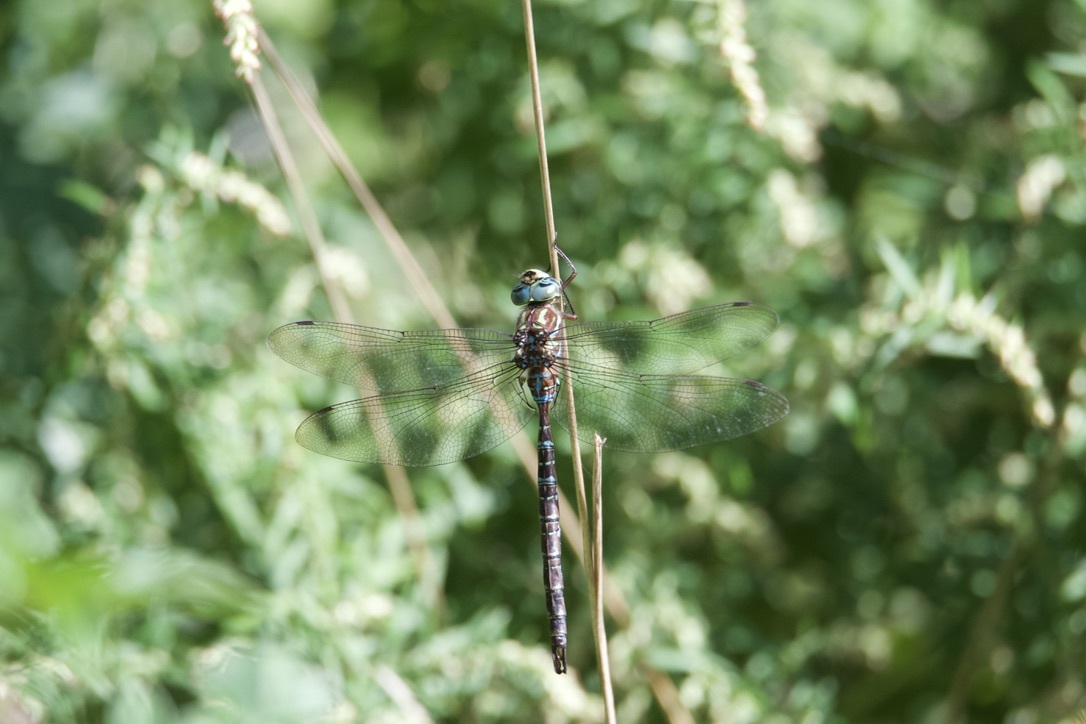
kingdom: Animalia
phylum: Arthropoda
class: Insecta
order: Odonata
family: Aeshnidae
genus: Aeshna
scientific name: Aeshna umbrosa
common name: Shadow darner
